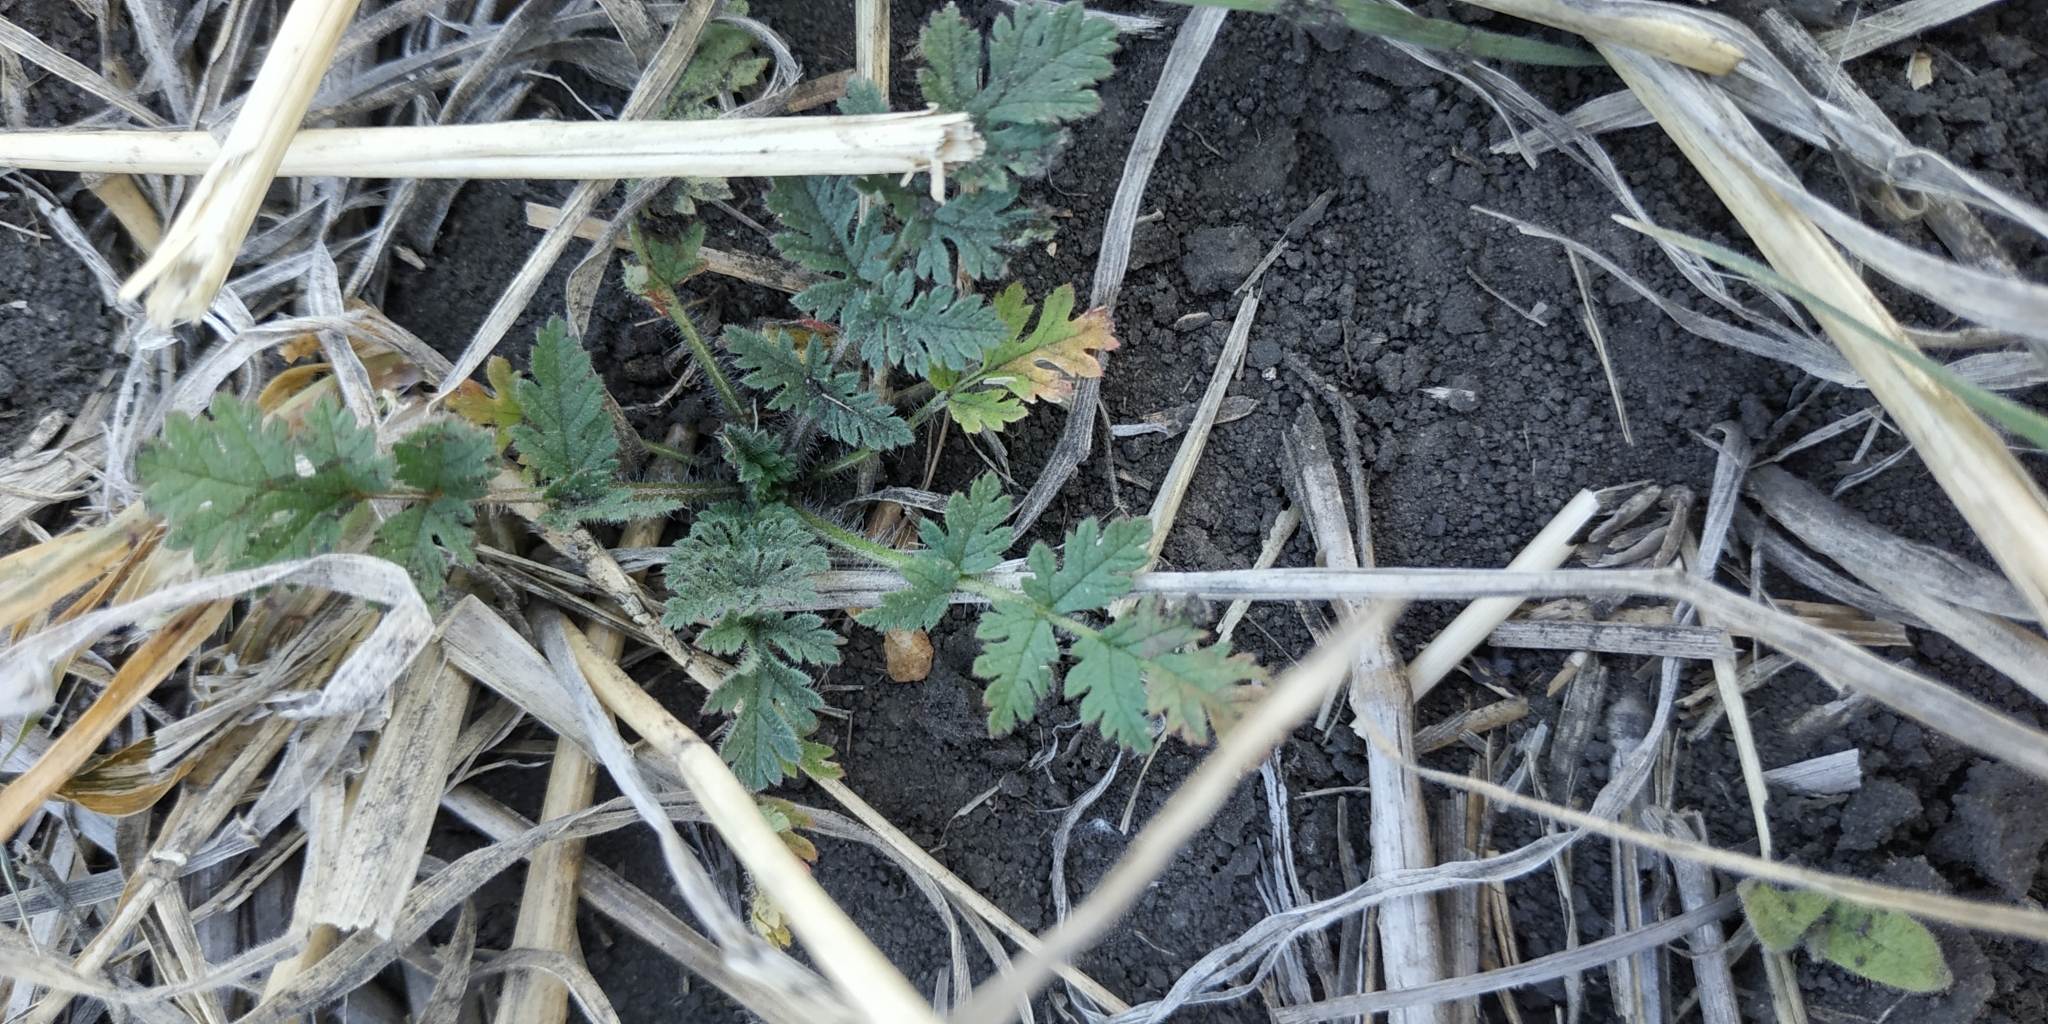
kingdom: Plantae
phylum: Tracheophyta
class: Magnoliopsida
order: Geraniales
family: Geraniaceae
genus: Erodium
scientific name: Erodium cicutarium
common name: Common stork's-bill
